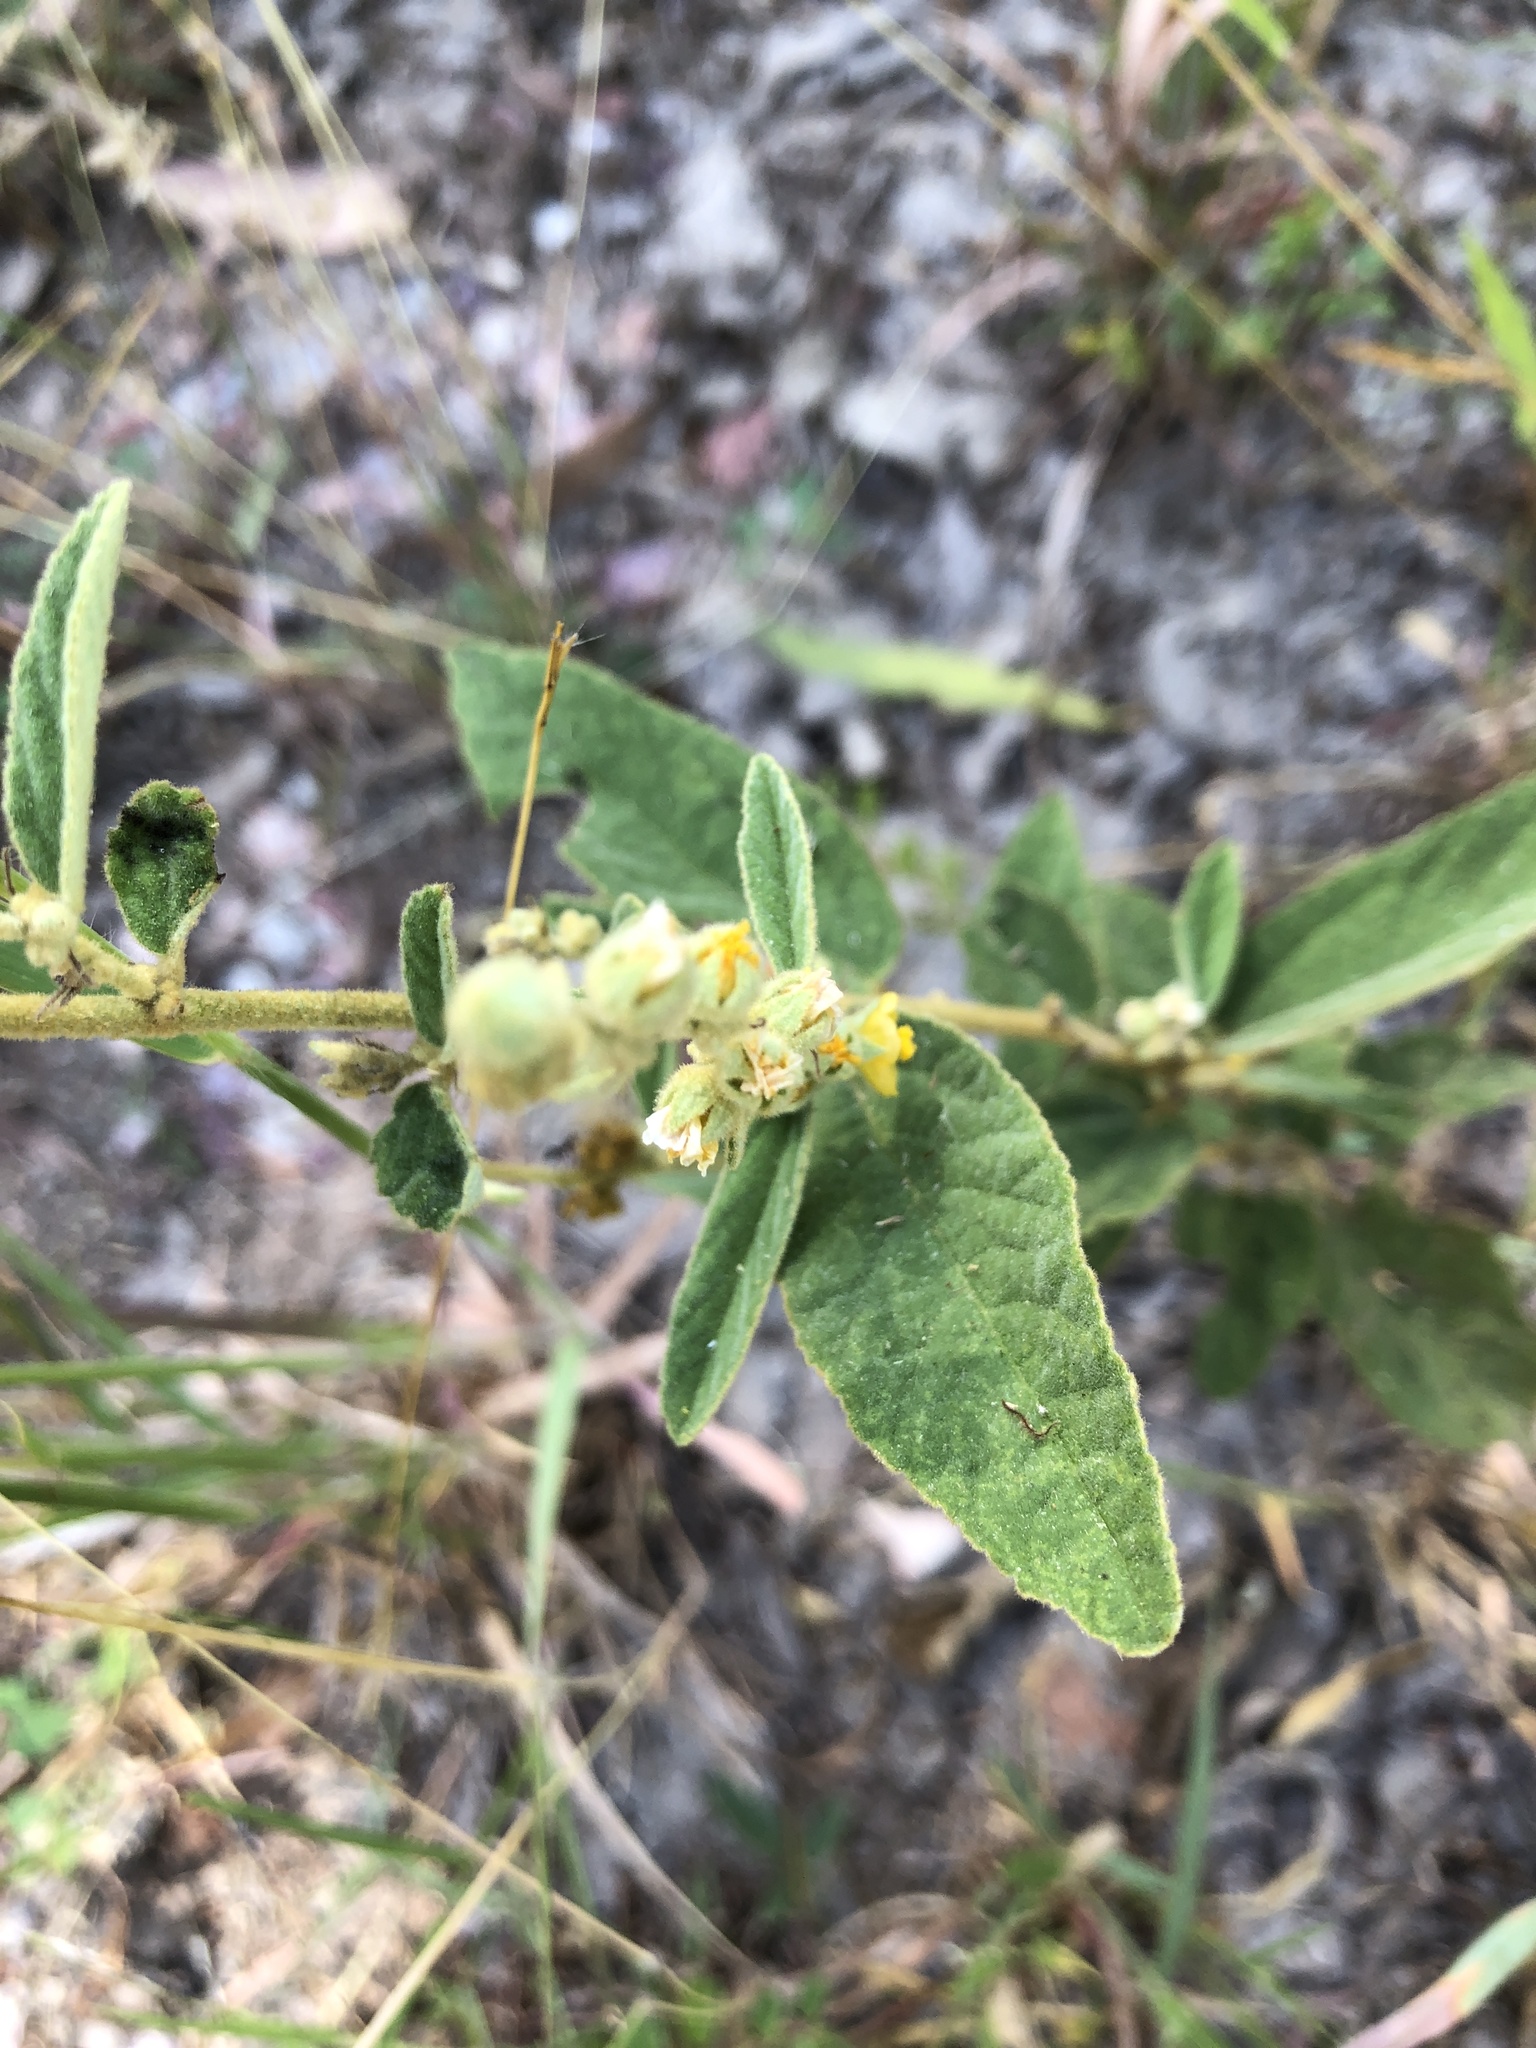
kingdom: Plantae
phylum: Tracheophyta
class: Magnoliopsida
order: Malvales
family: Malvaceae
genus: Sida
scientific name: Sida hackettiana
